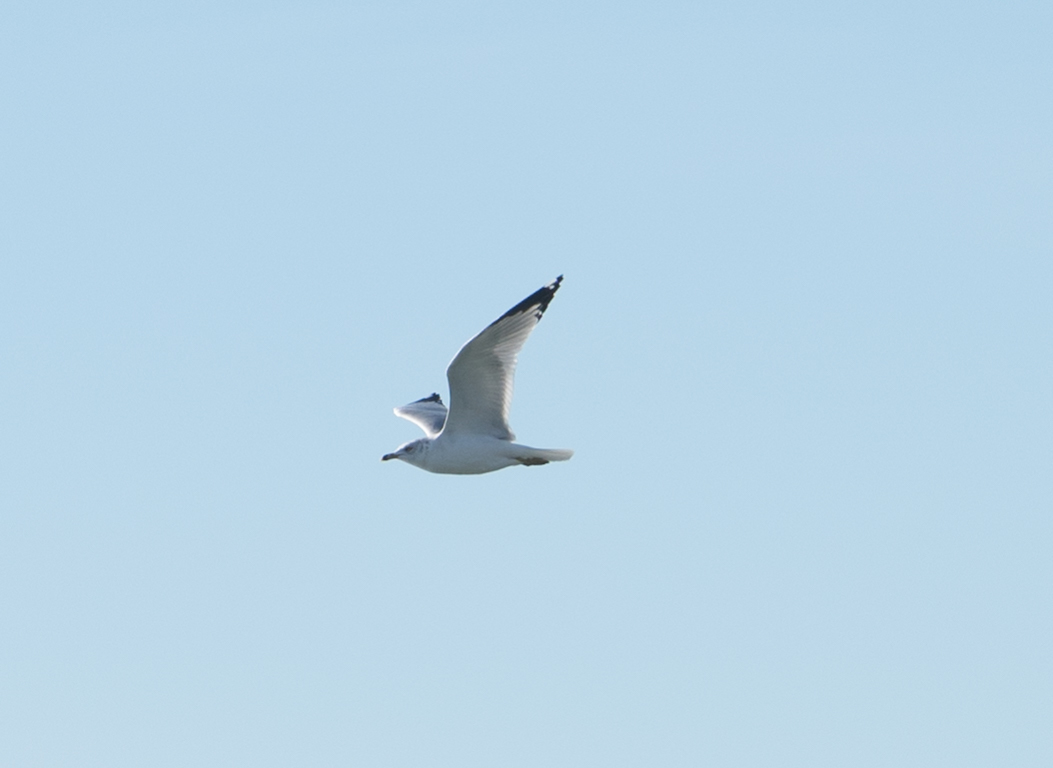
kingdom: Animalia
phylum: Chordata
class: Aves
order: Charadriiformes
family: Laridae
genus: Larus
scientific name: Larus delawarensis
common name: Ring-billed gull
